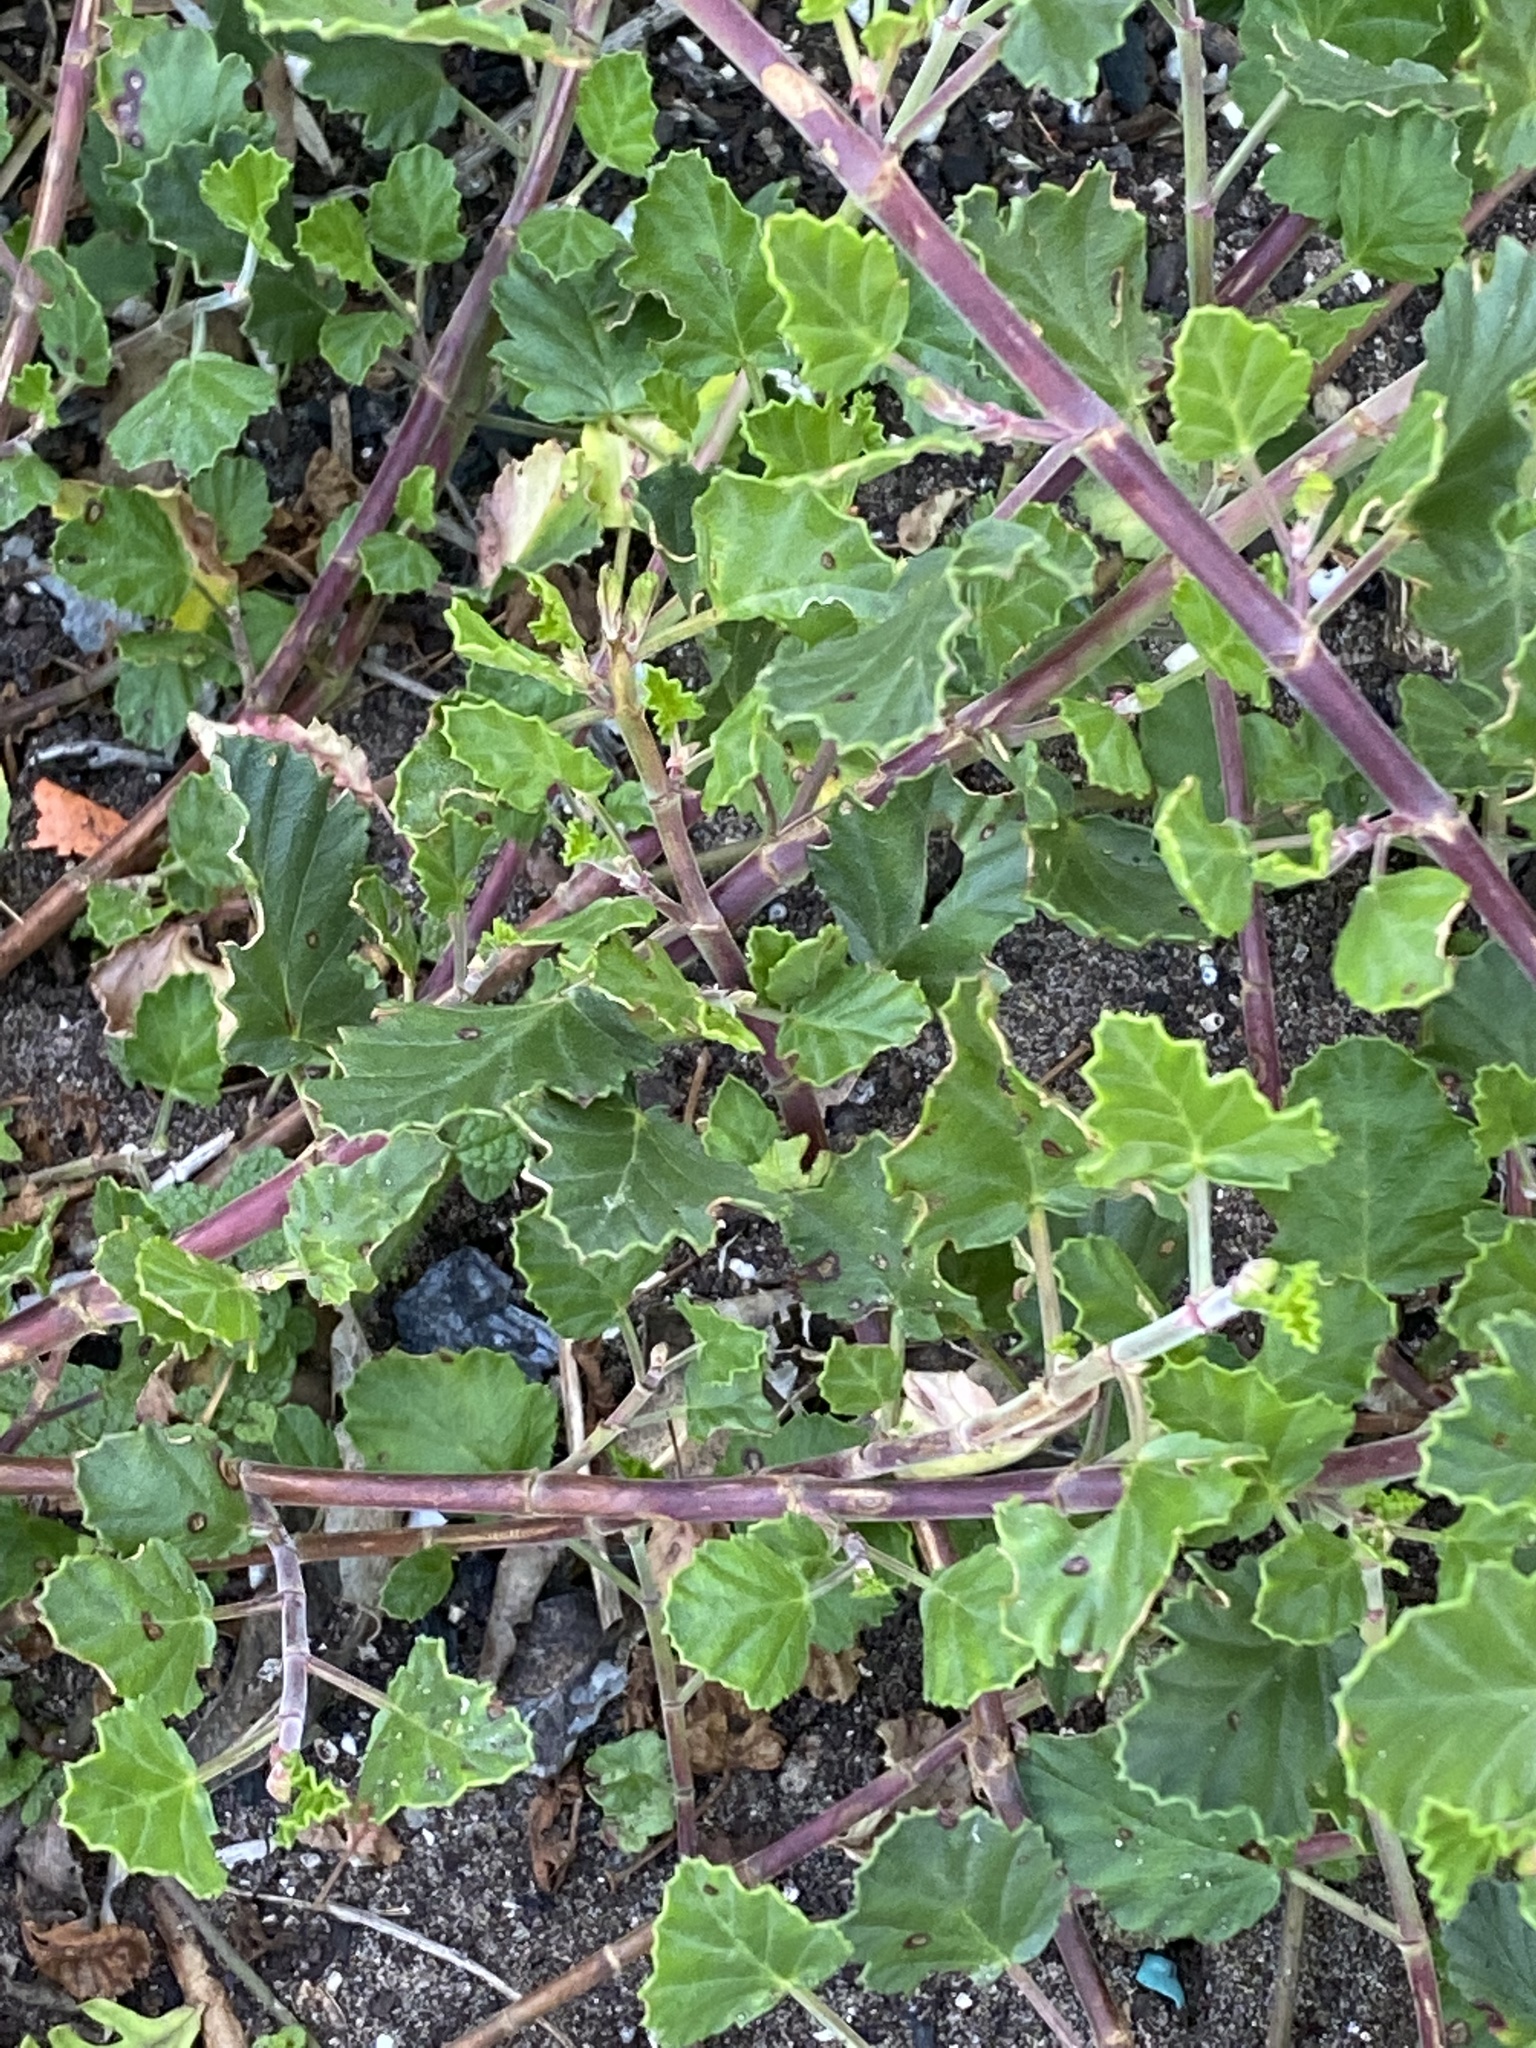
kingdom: Plantae
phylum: Tracheophyta
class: Magnoliopsida
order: Geraniales
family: Geraniaceae
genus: Pelargonium
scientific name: Pelargonium betulinum
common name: Birch-leaf pelargonium
